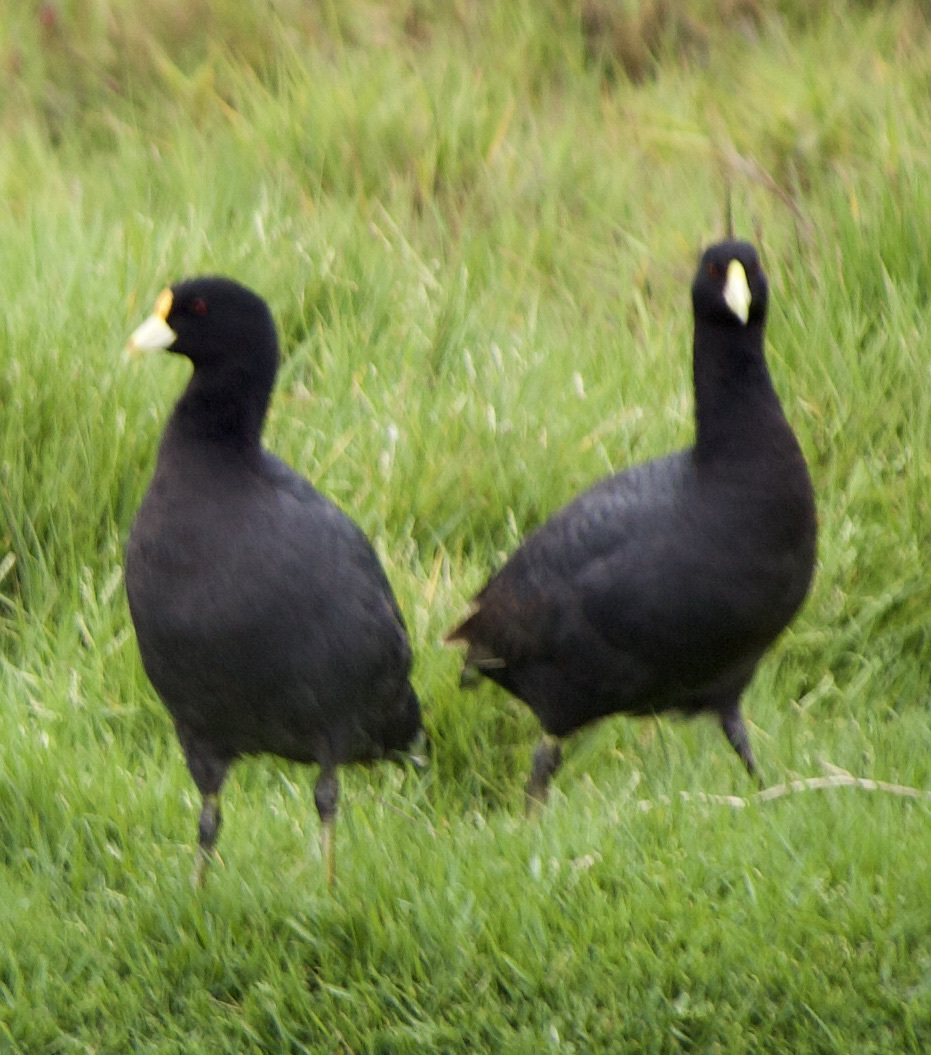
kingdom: Animalia
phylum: Chordata
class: Aves
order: Gruiformes
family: Rallidae
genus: Fulica
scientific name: Fulica leucoptera
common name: White-winged coot
